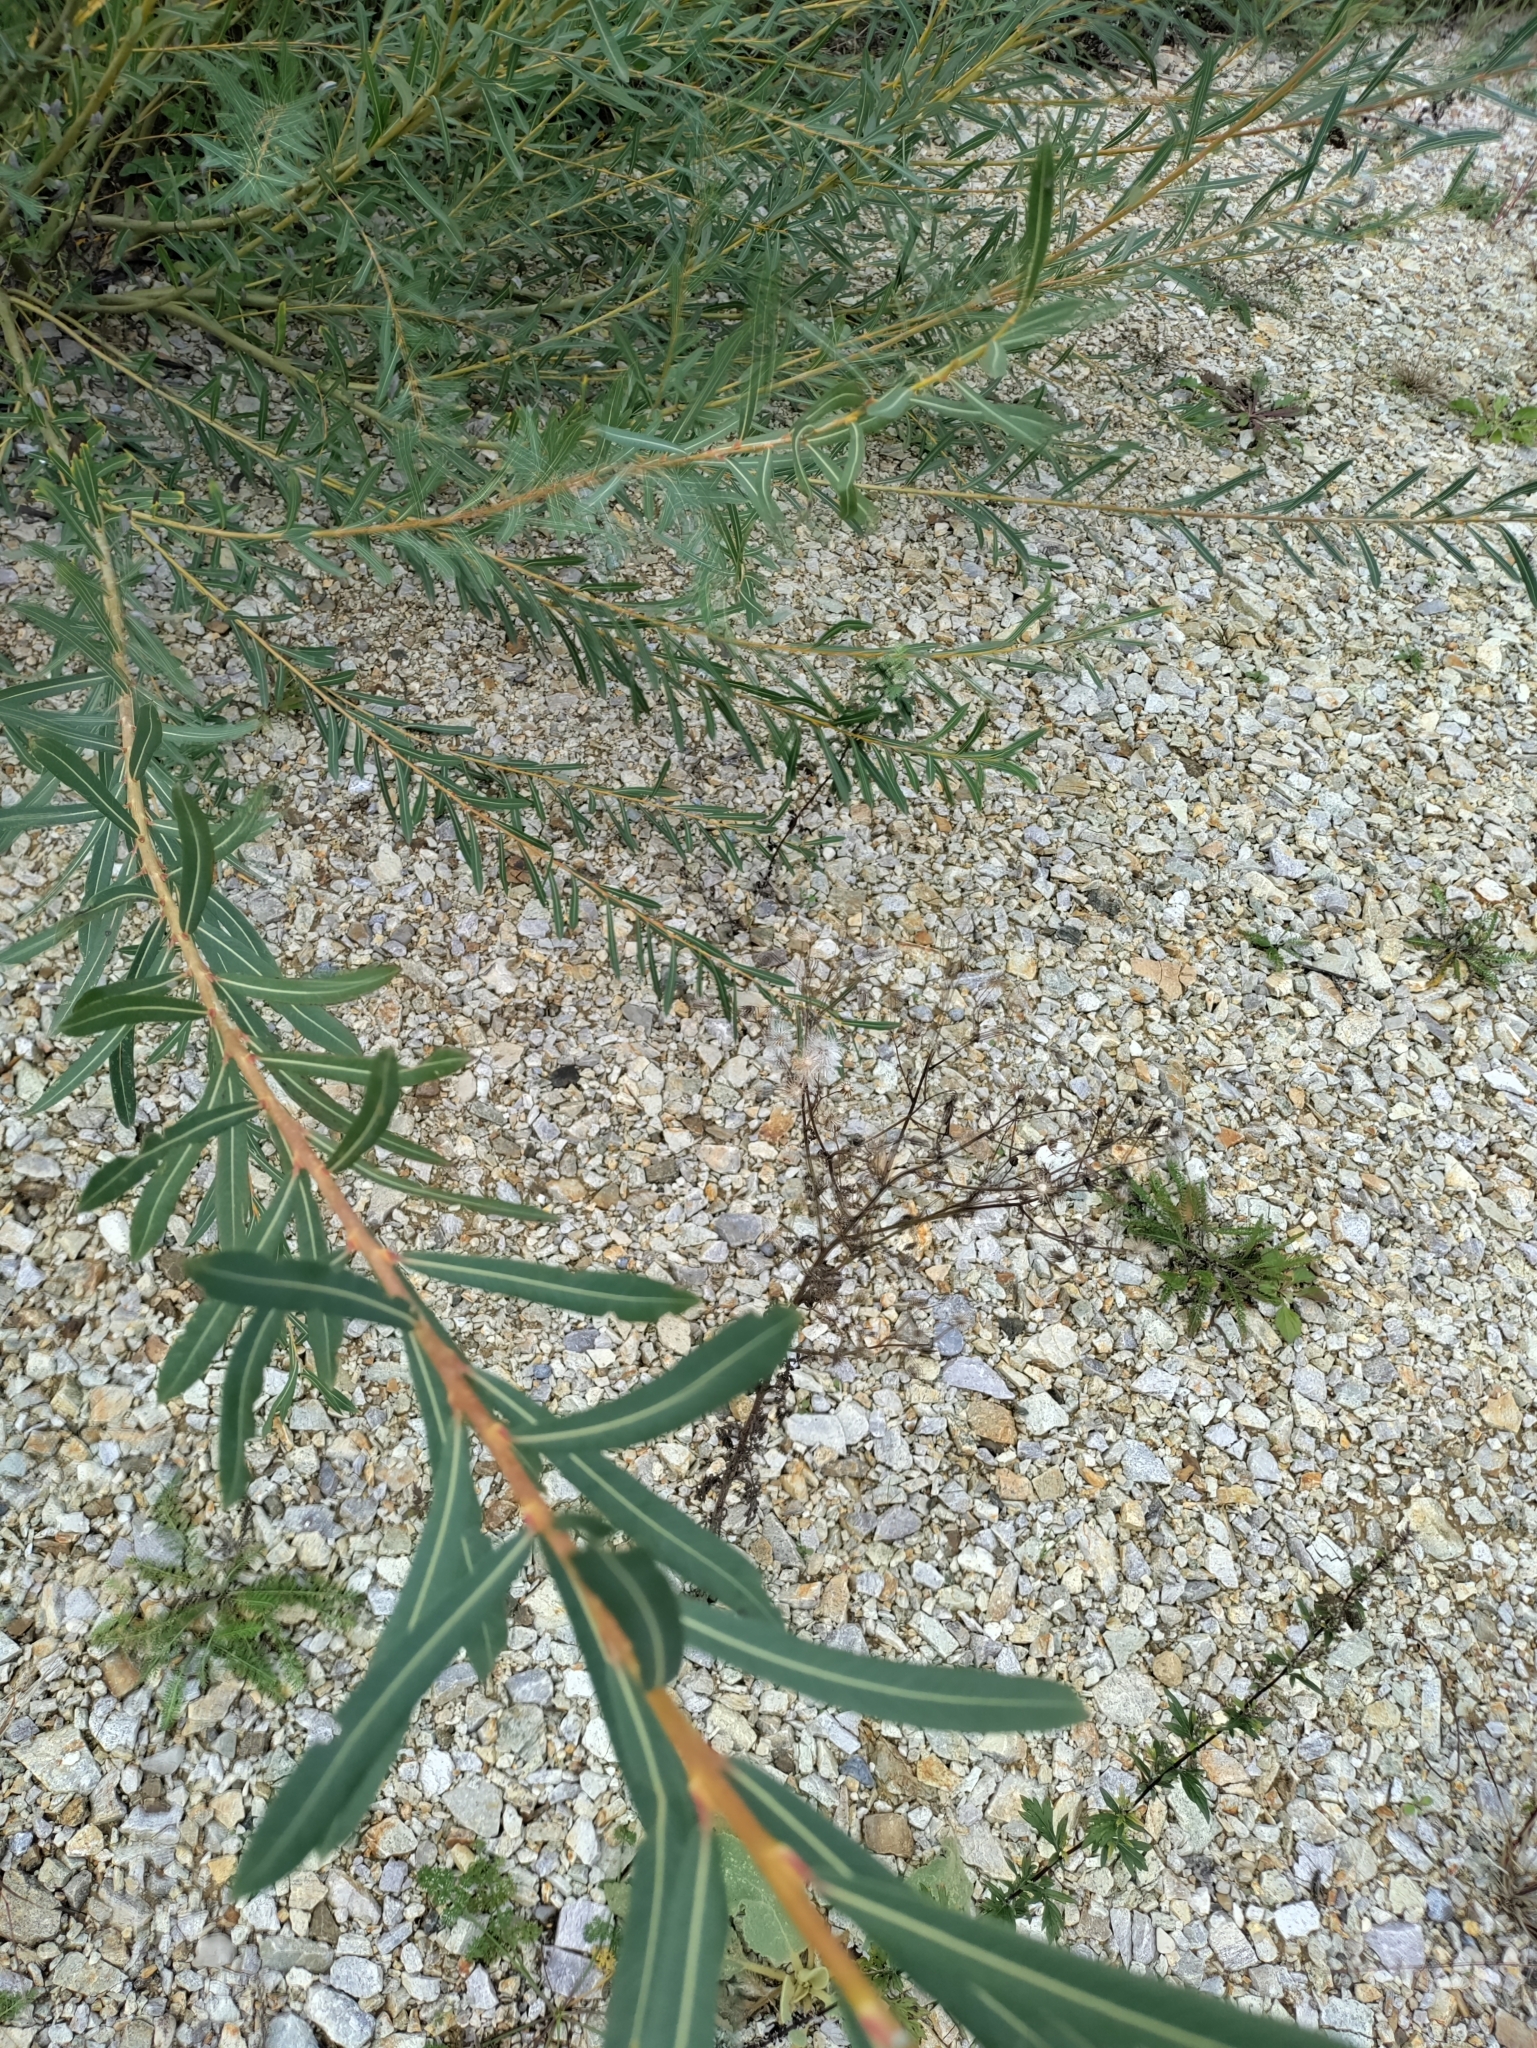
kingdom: Plantae
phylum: Tracheophyta
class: Magnoliopsida
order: Malpighiales
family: Salicaceae
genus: Salix
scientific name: Salix purpurea
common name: Purple willow
